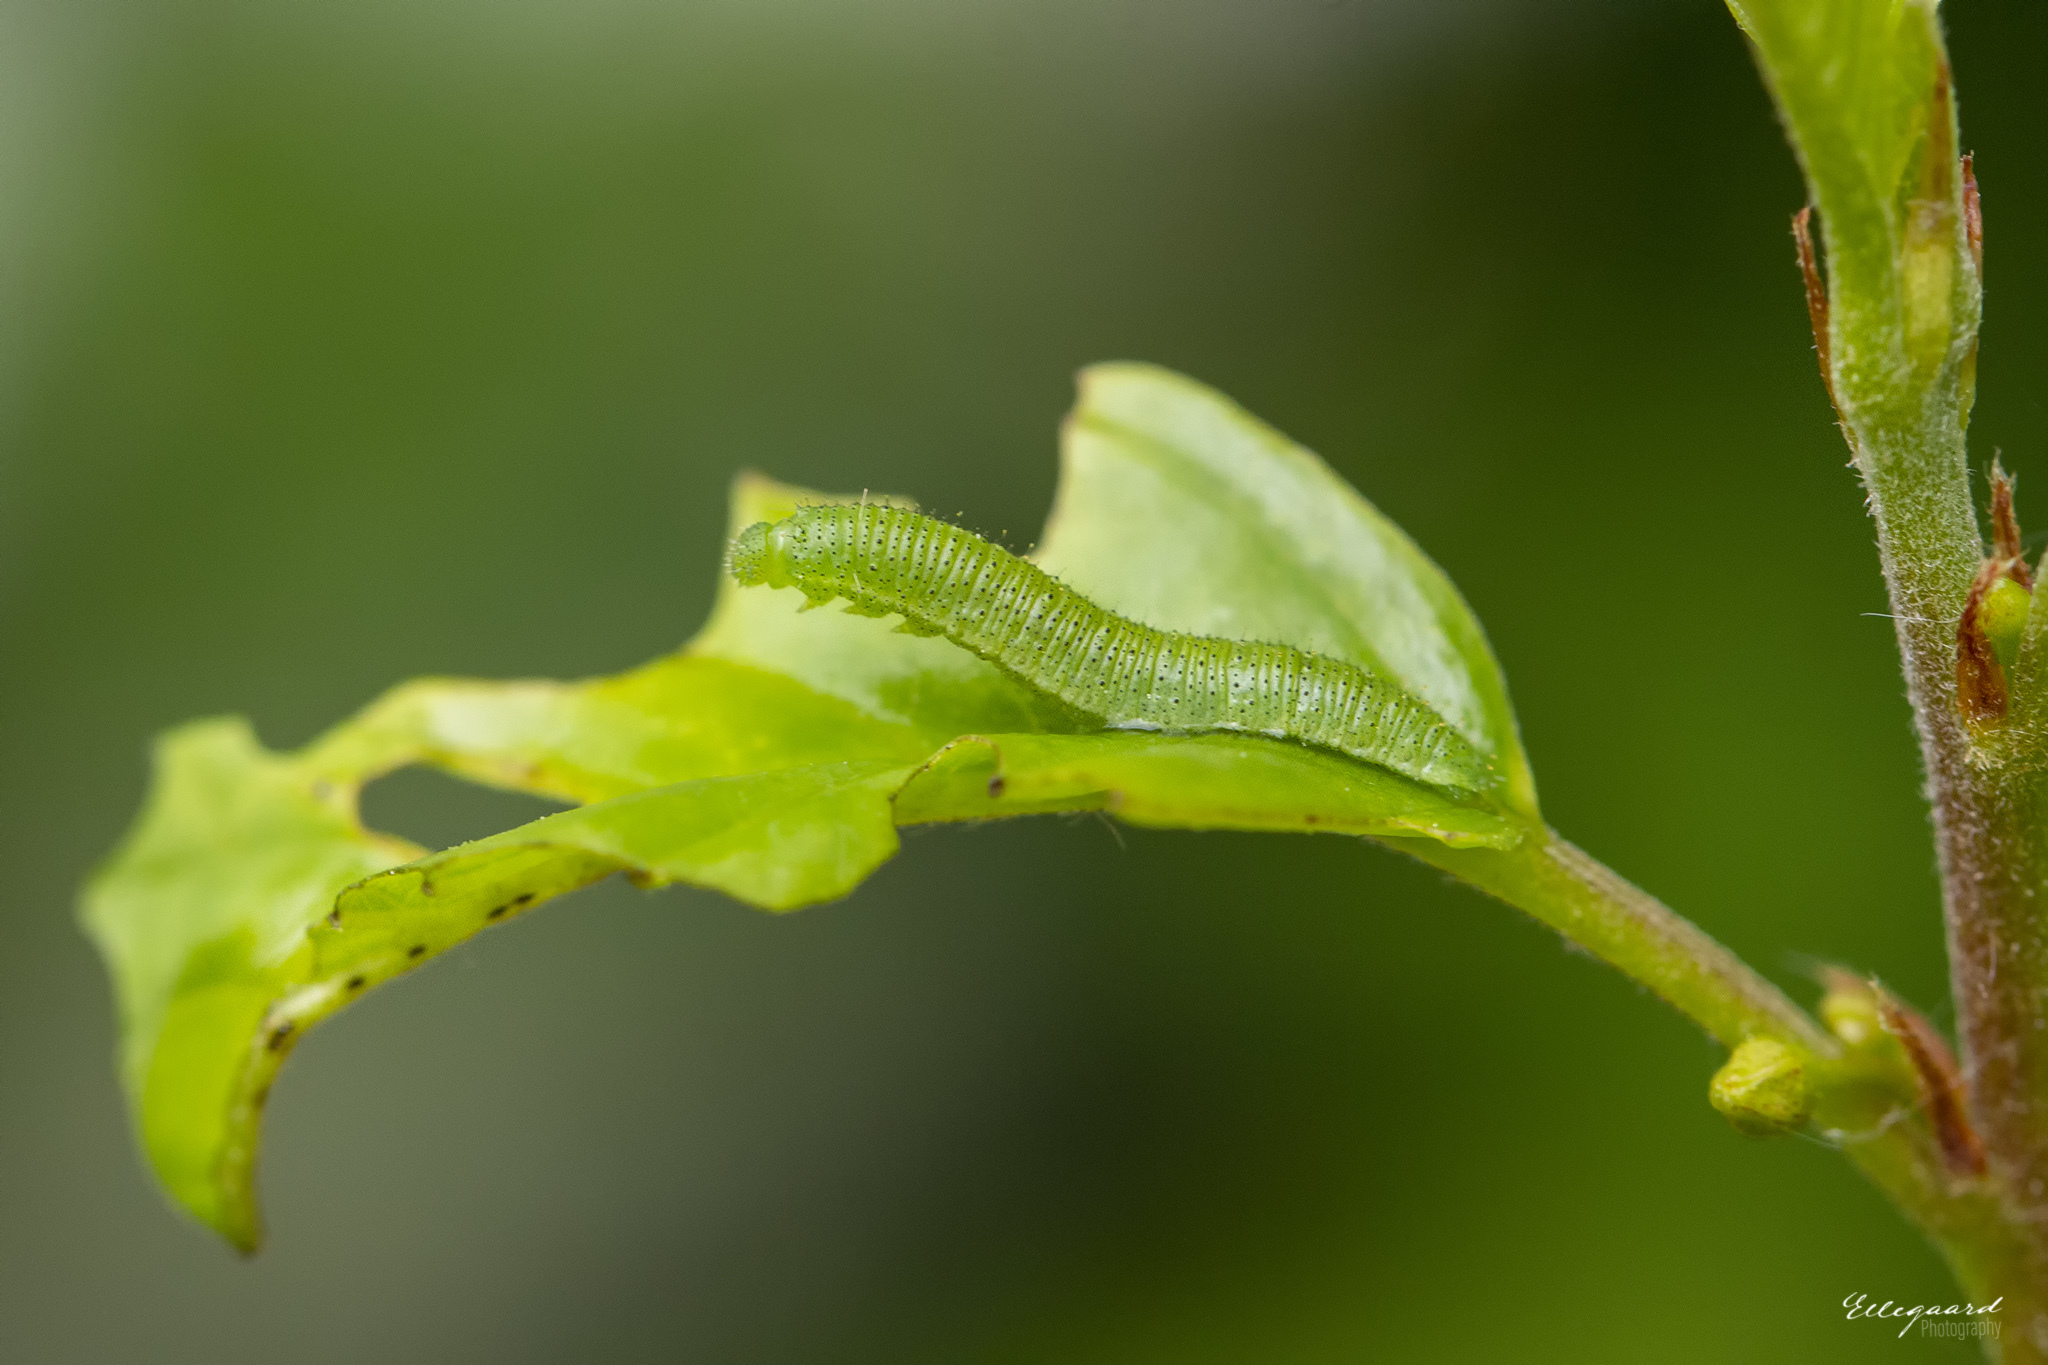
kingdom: Animalia
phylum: Arthropoda
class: Insecta
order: Lepidoptera
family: Pieridae
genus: Gonepteryx
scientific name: Gonepteryx rhamni
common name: Brimstone
